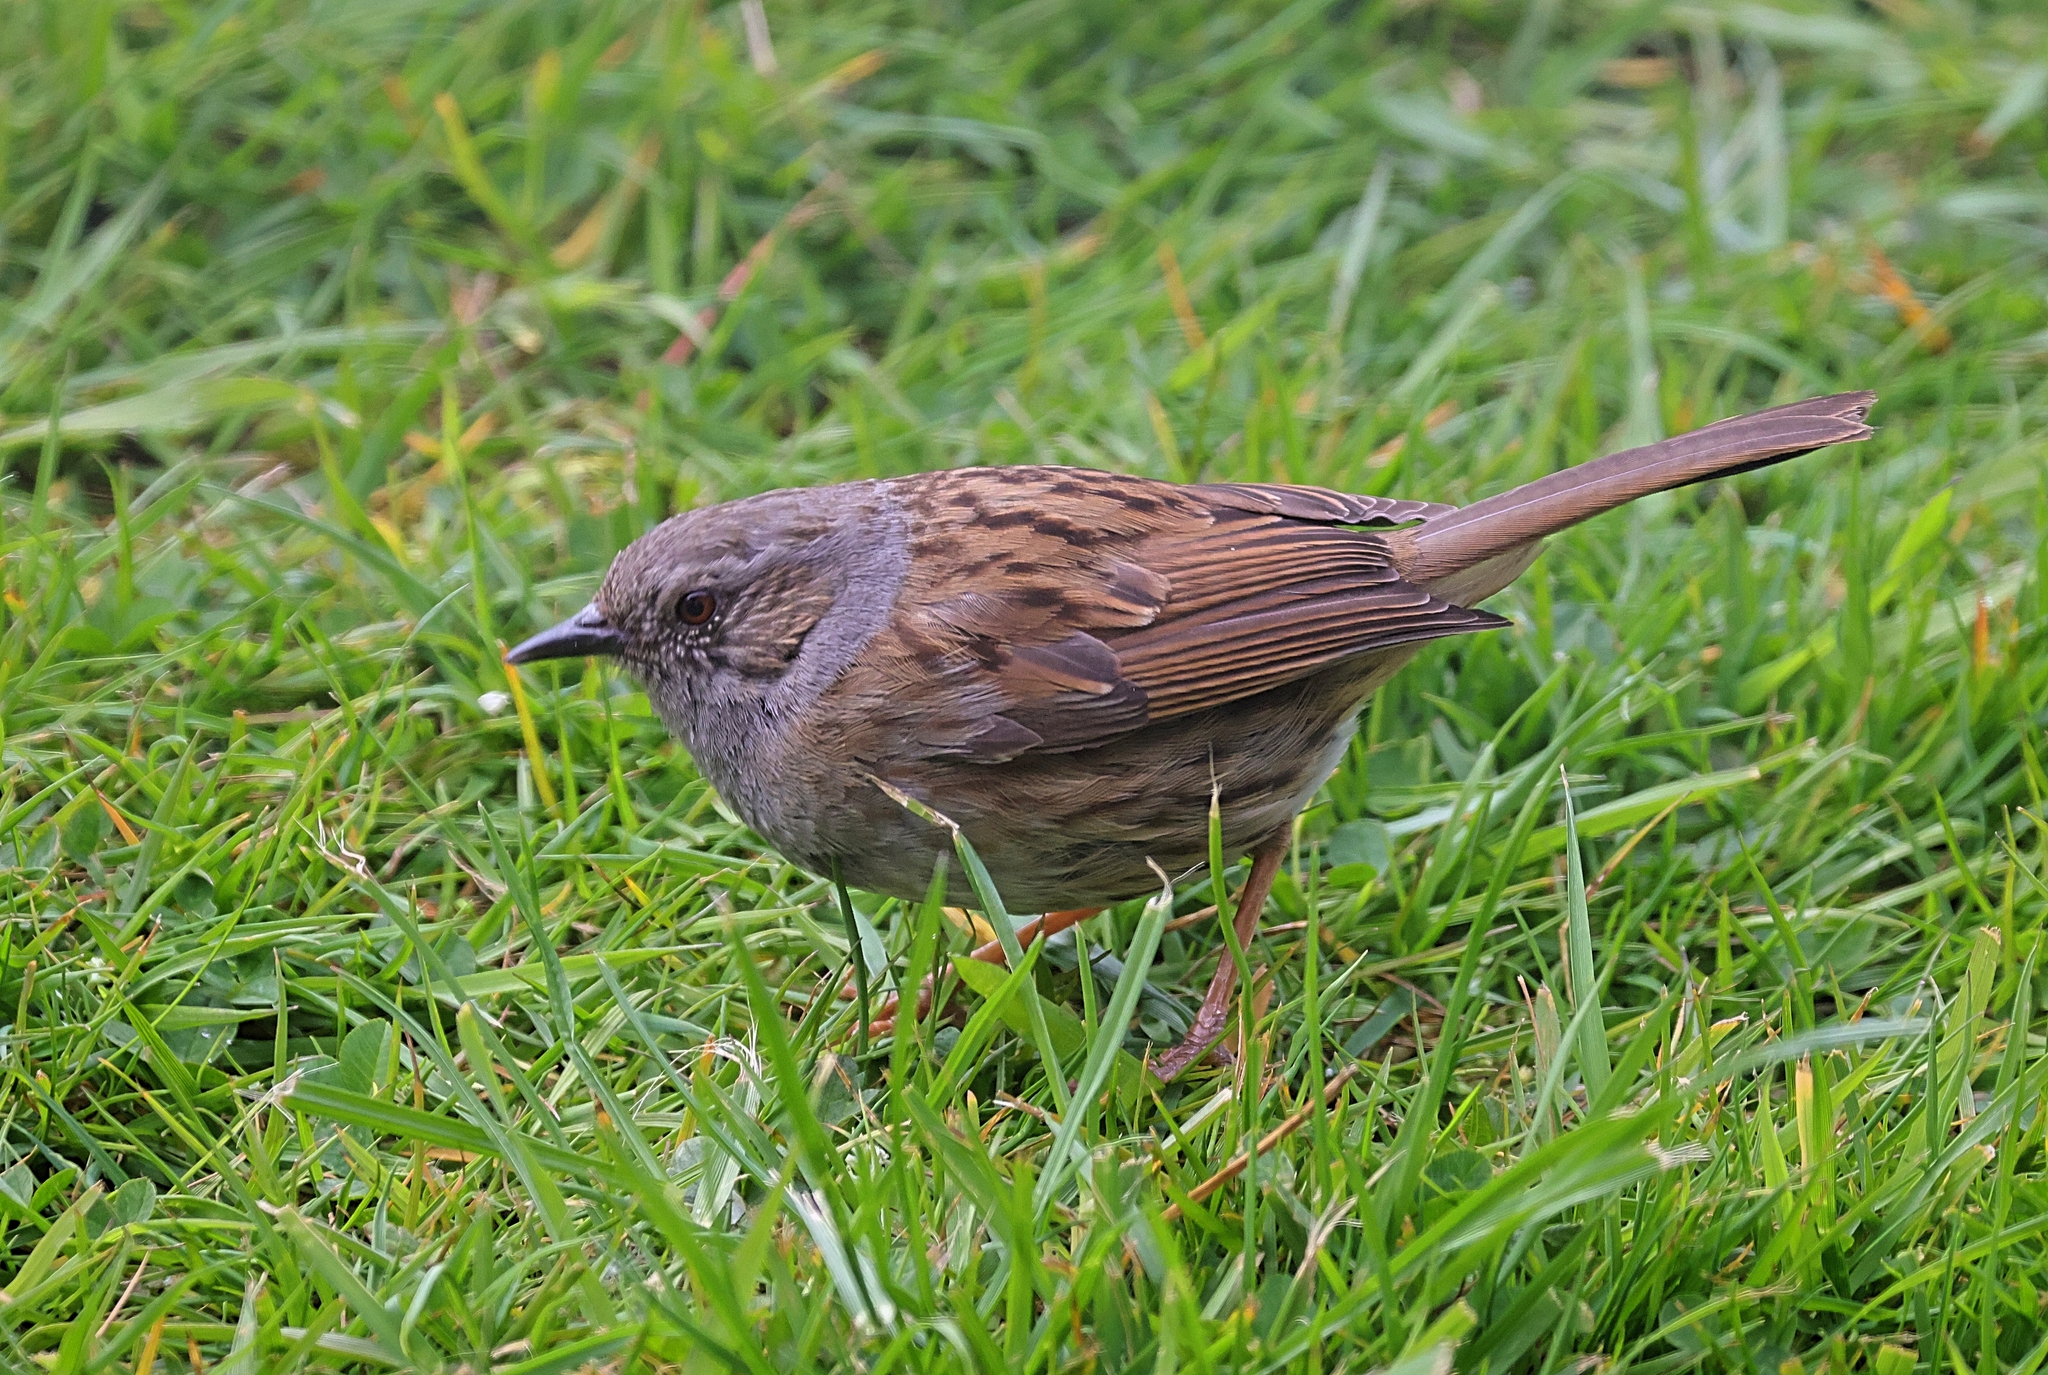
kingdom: Animalia
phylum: Chordata
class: Aves
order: Passeriformes
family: Prunellidae
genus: Prunella
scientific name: Prunella modularis
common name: Dunnock
